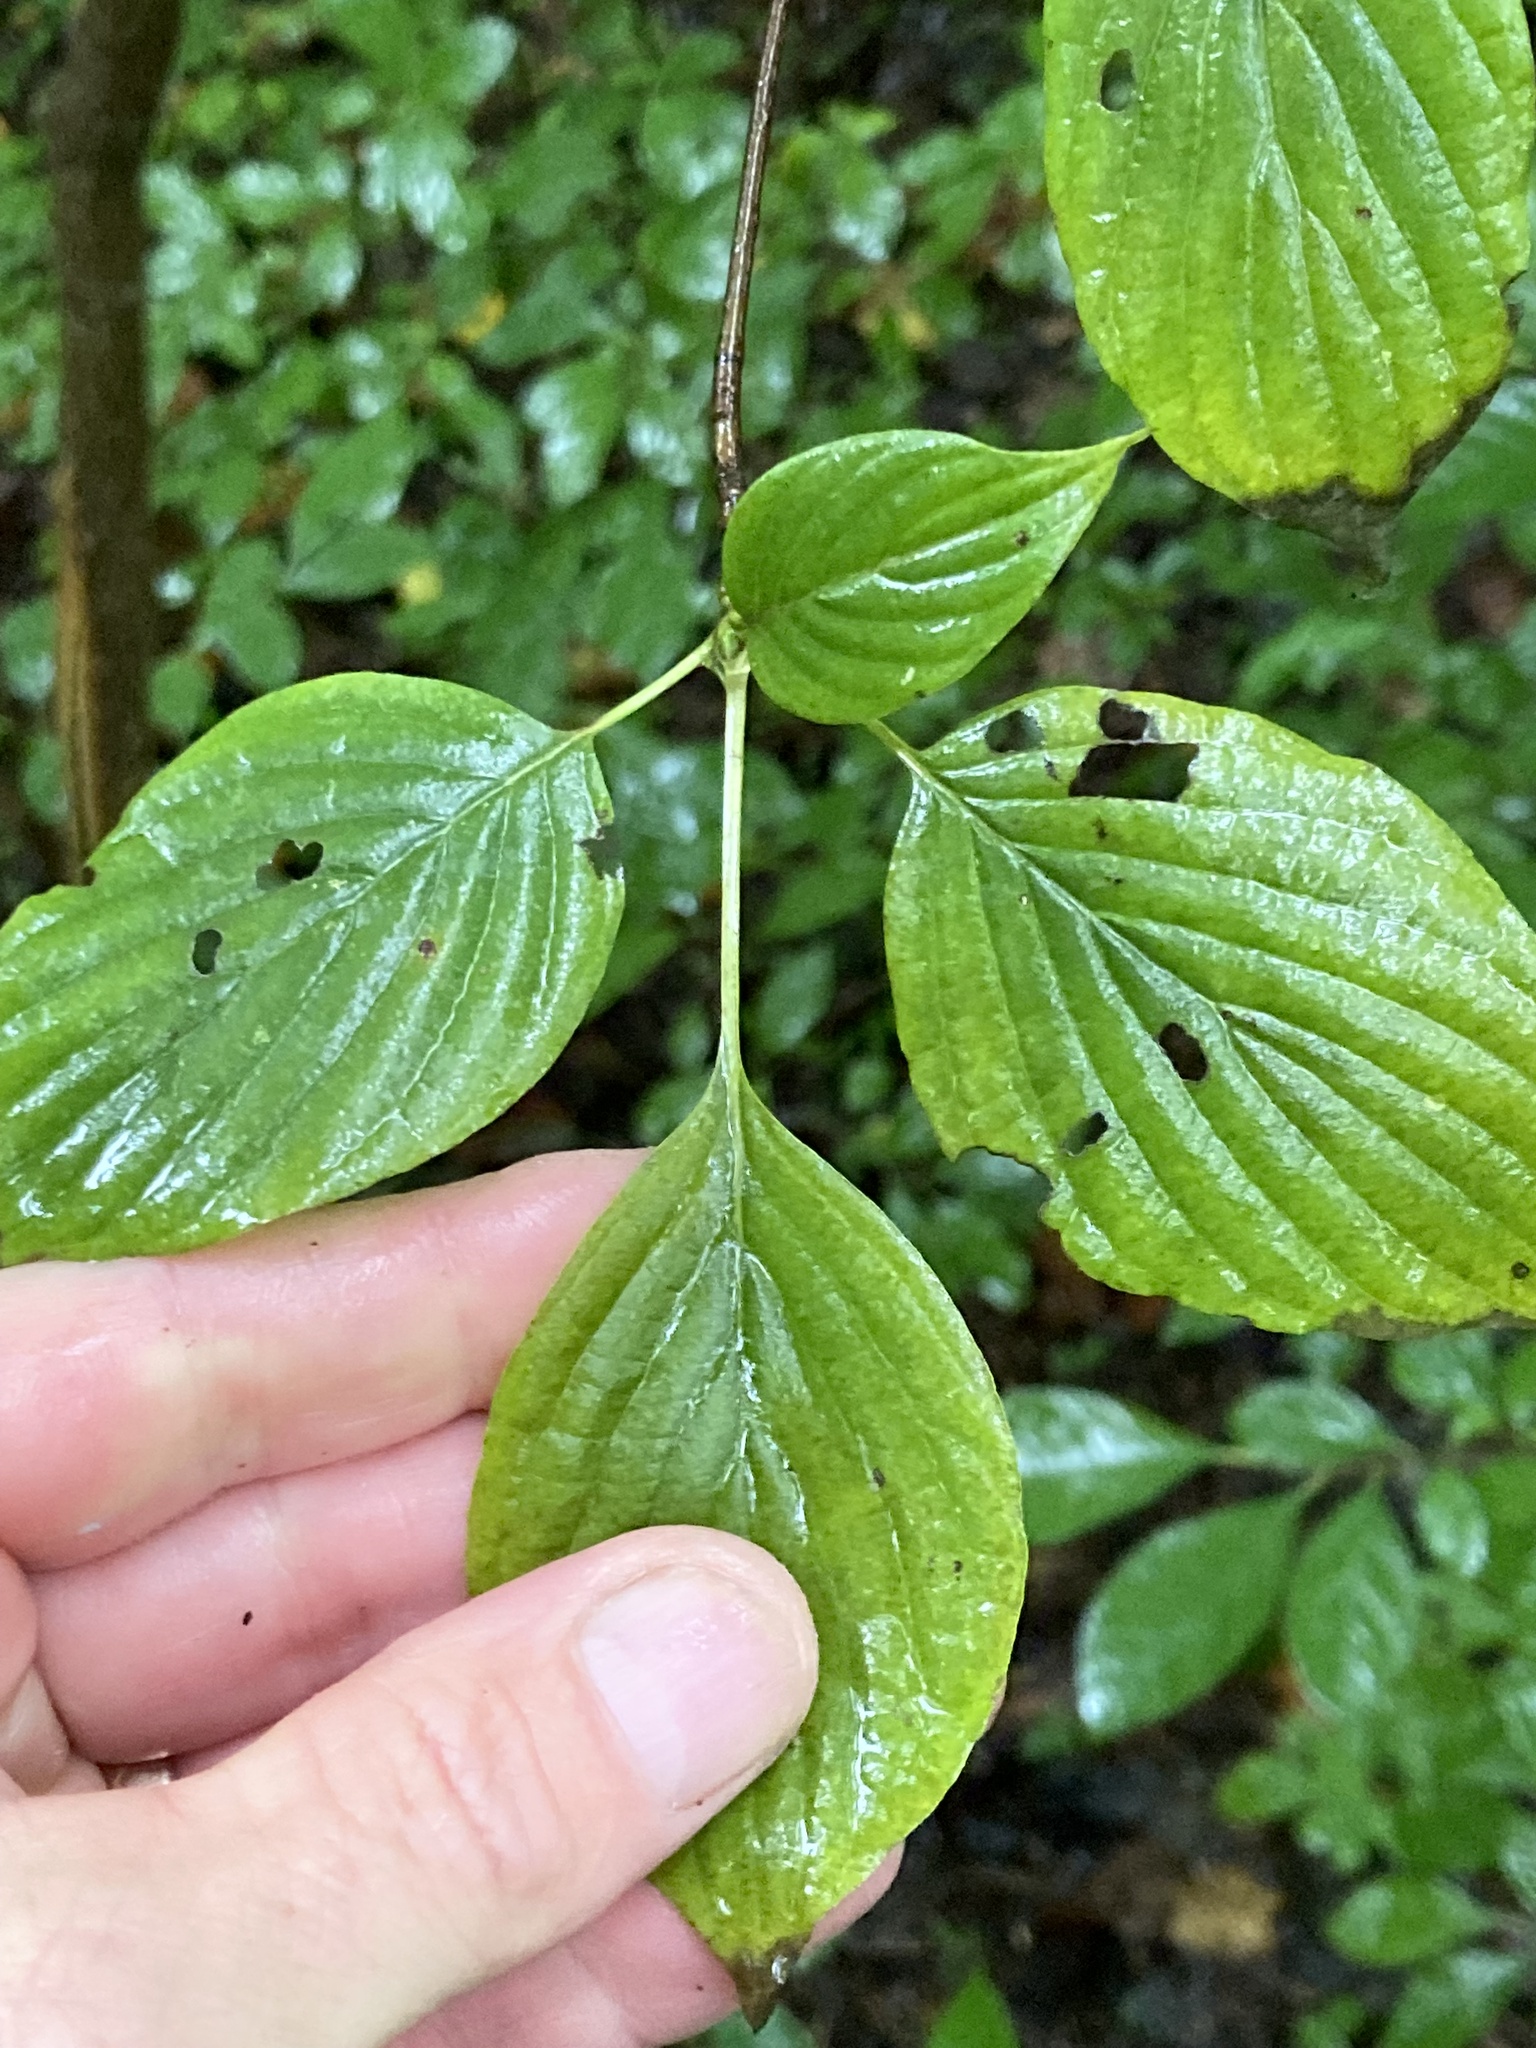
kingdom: Plantae
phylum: Tracheophyta
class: Magnoliopsida
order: Cornales
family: Cornaceae
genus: Cornus
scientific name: Cornus alternifolia
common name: Pagoda dogwood
